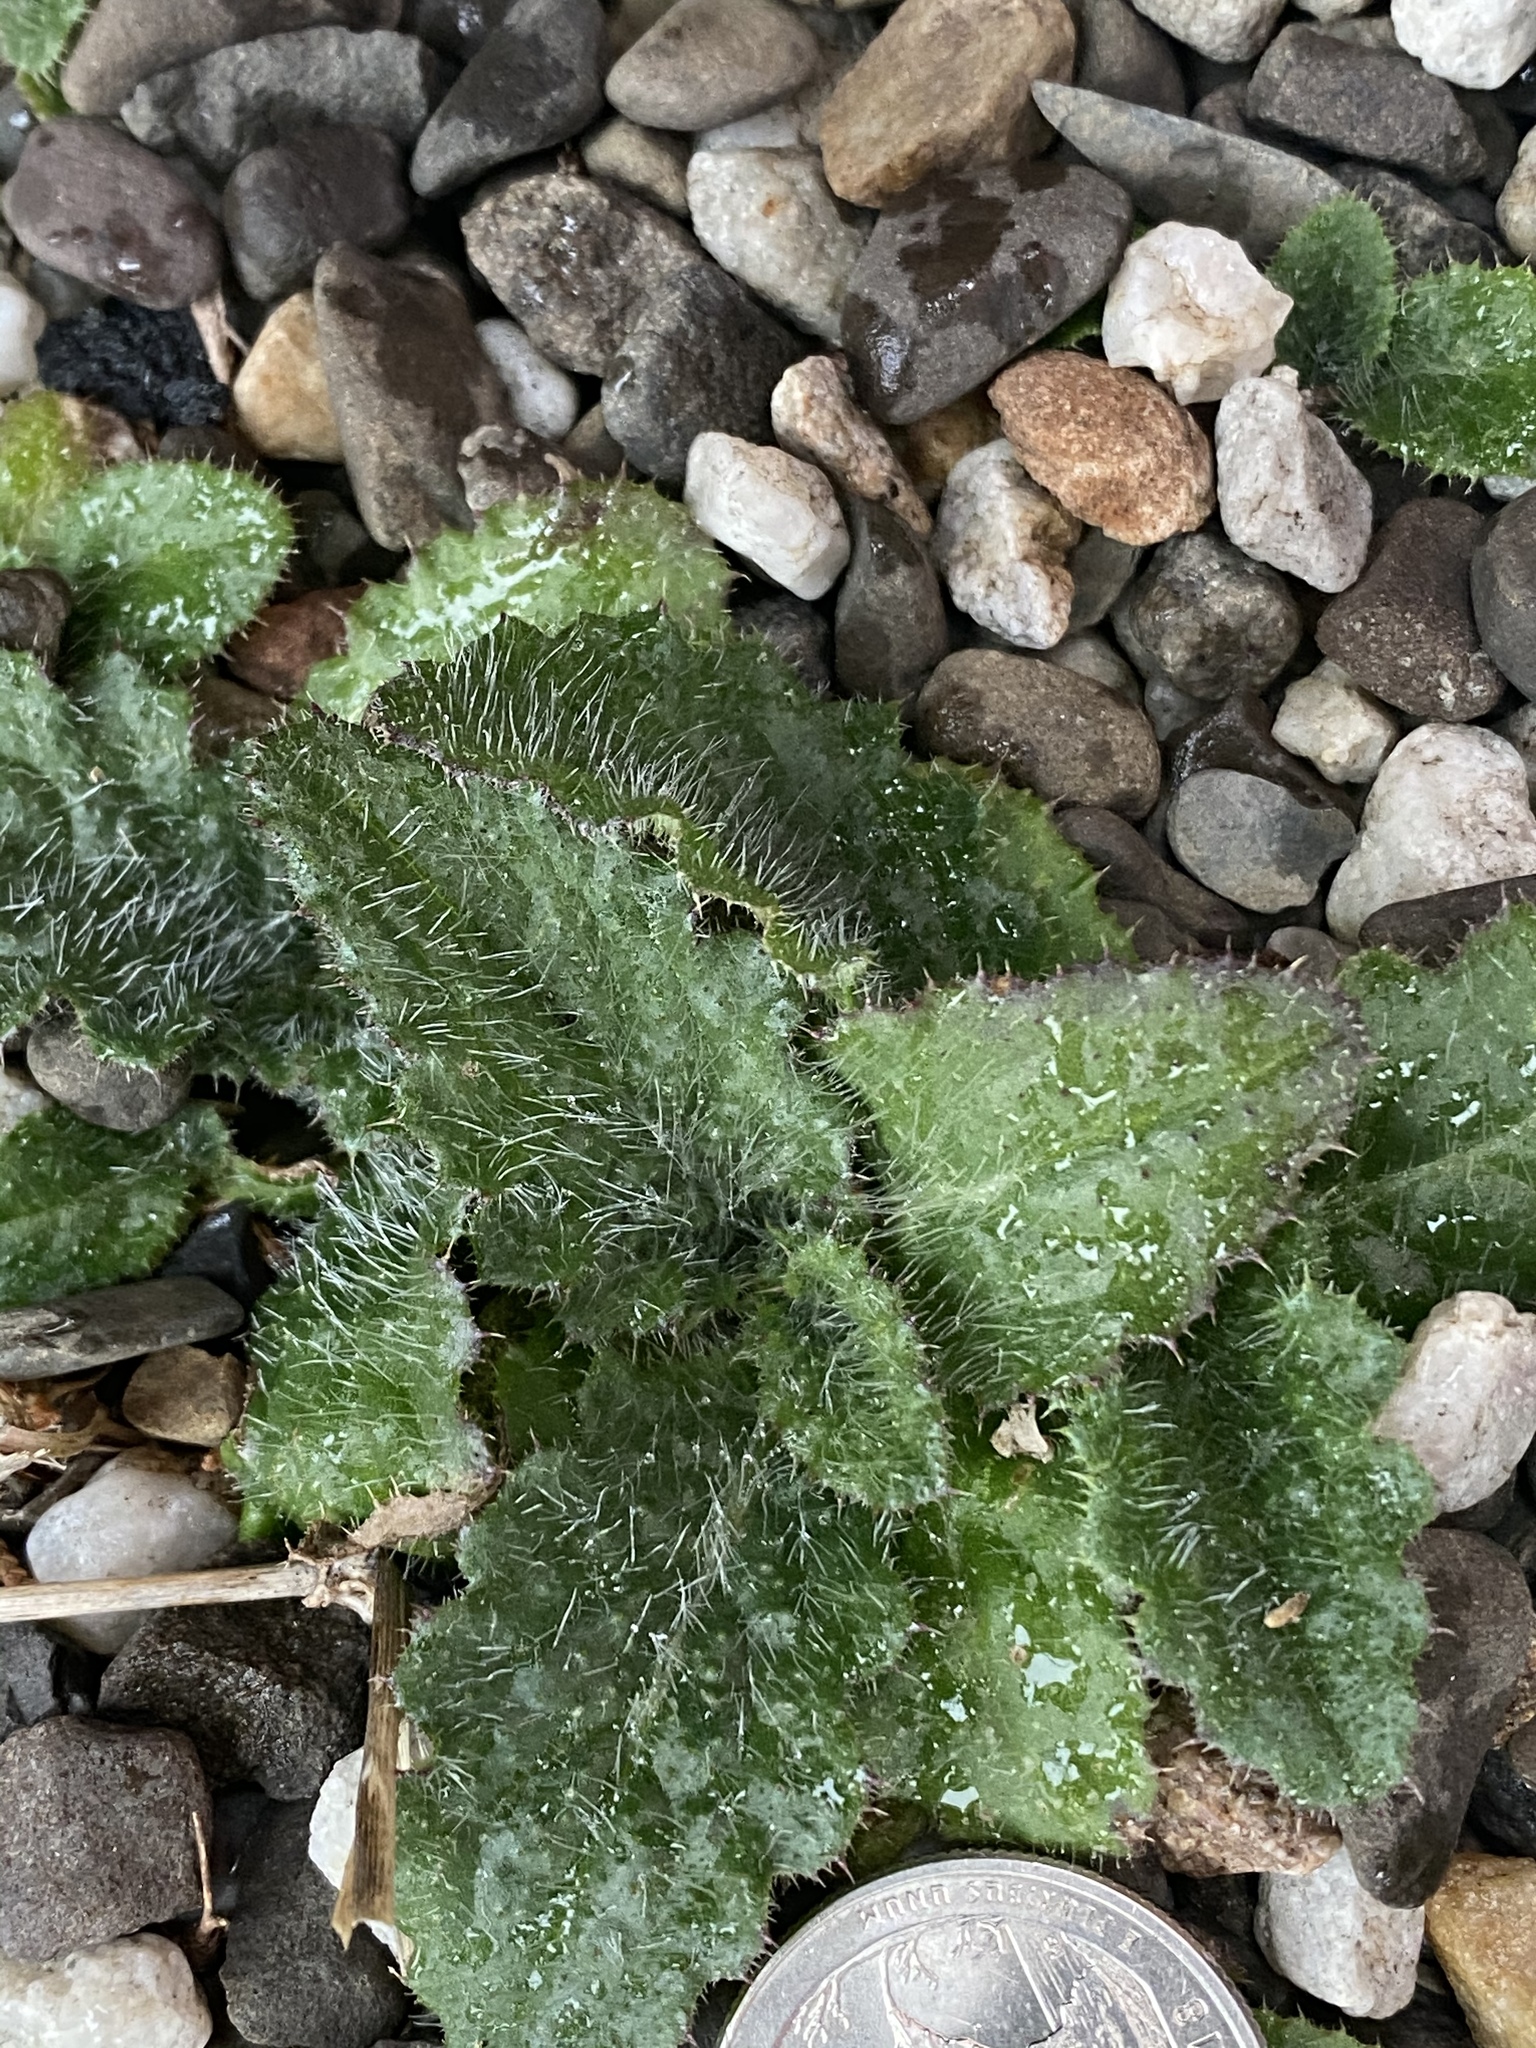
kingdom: Plantae
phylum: Tracheophyta
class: Magnoliopsida
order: Asterales
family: Asteraceae
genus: Cirsium
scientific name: Cirsium vulgare
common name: Bull thistle
